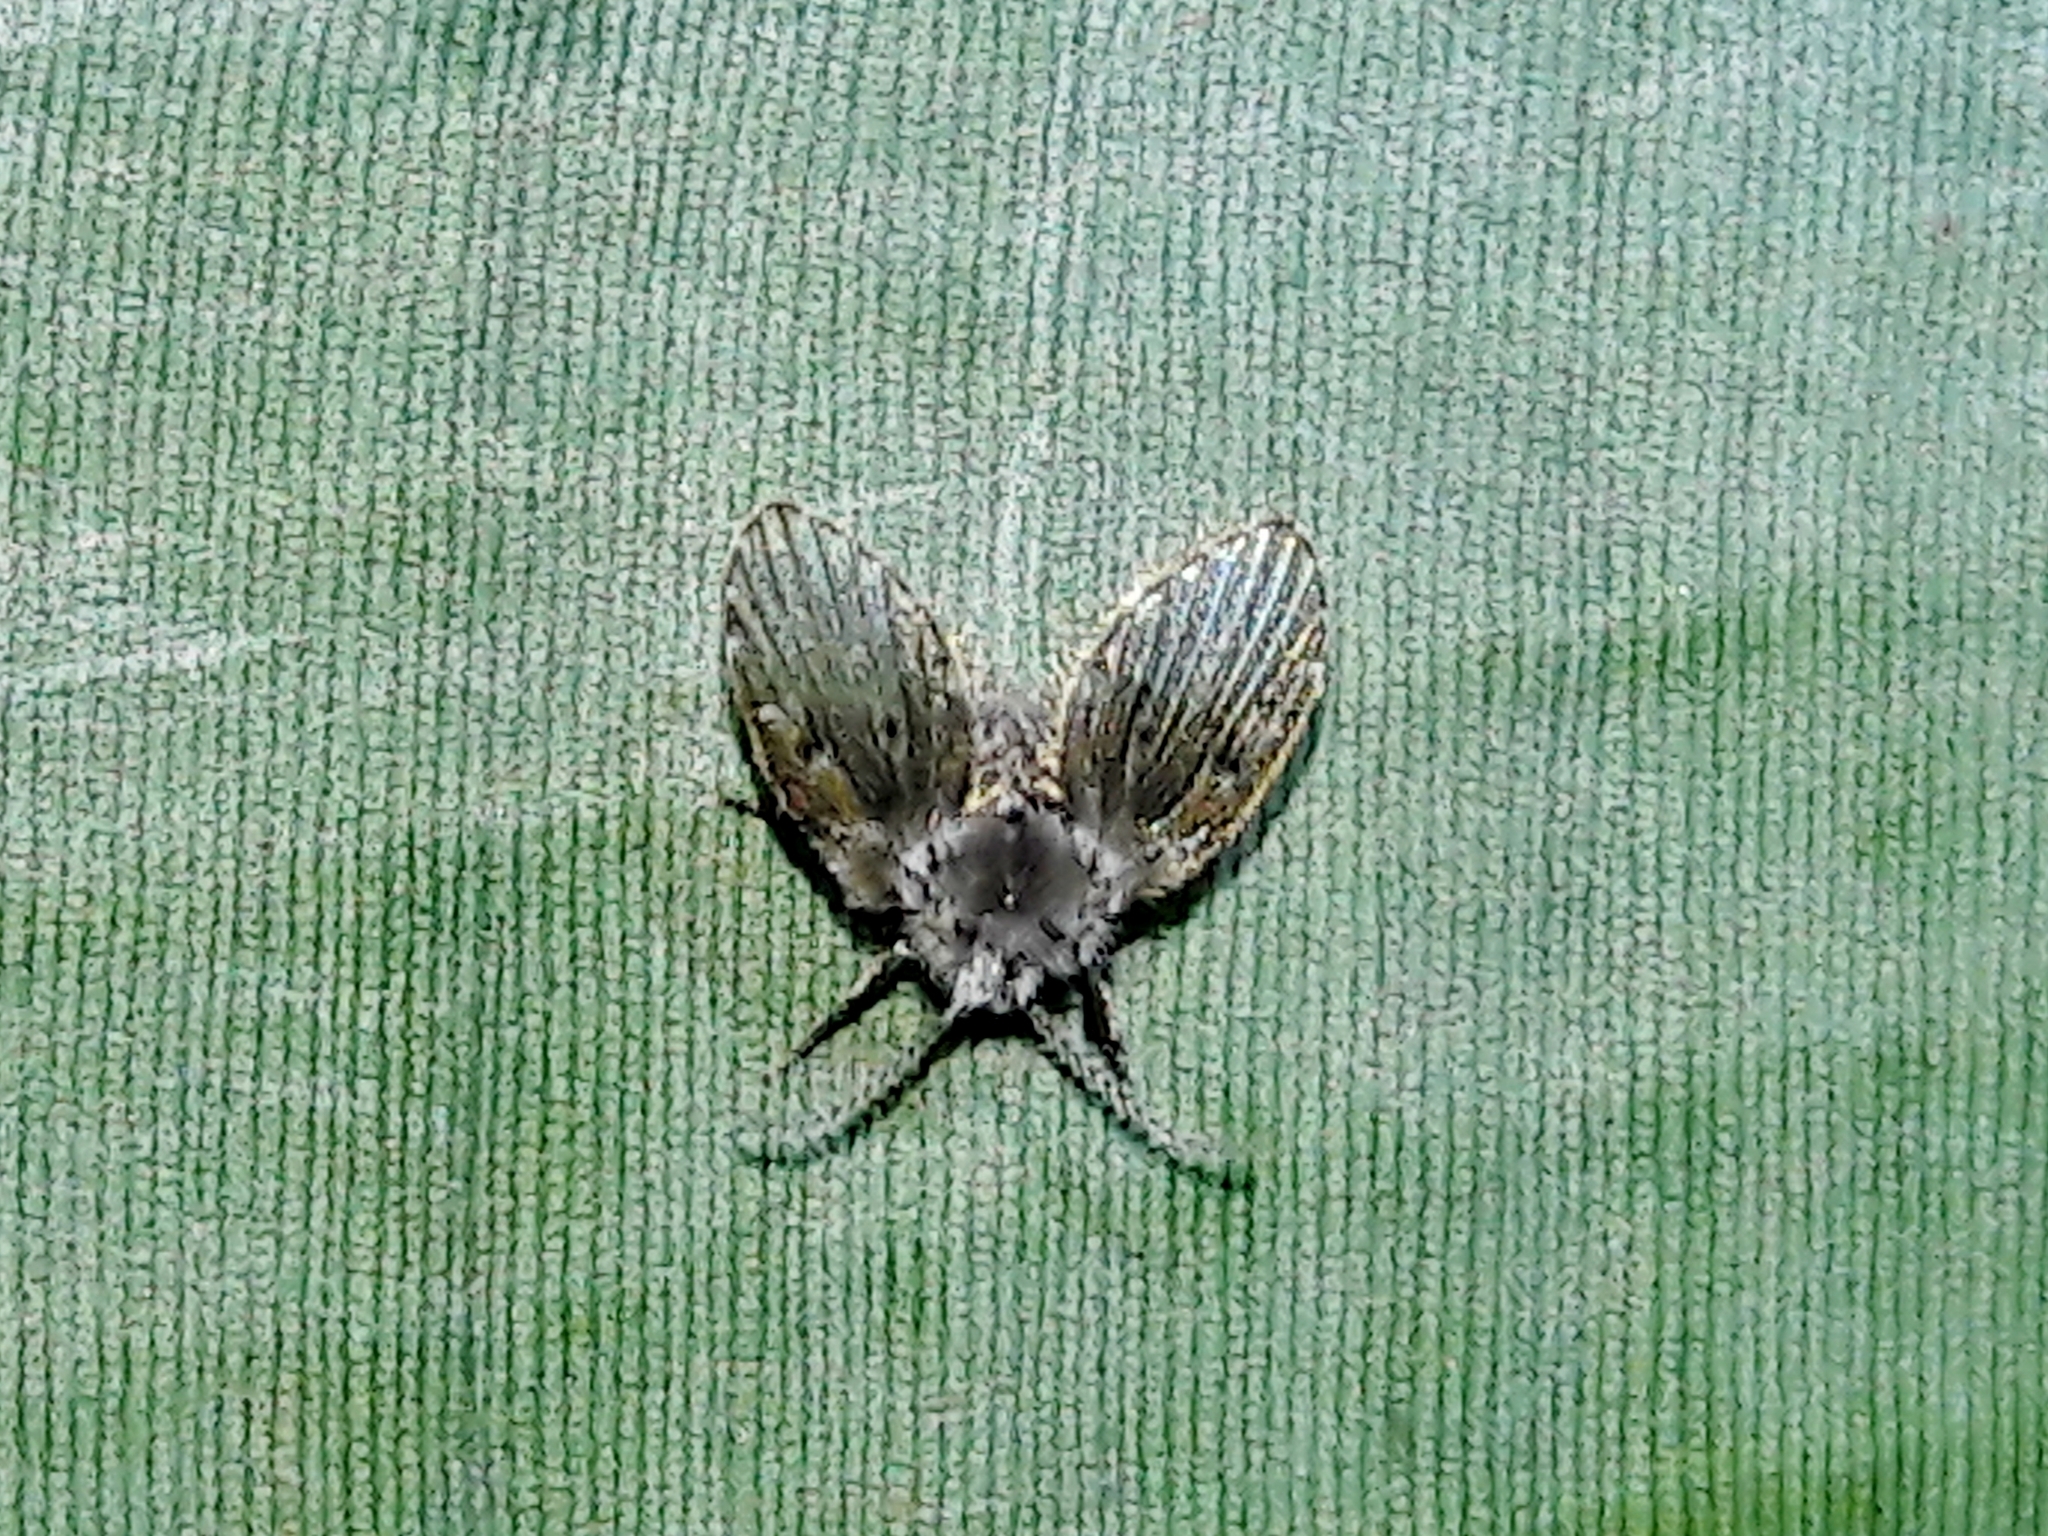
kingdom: Animalia
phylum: Arthropoda
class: Insecta
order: Diptera
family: Psychodidae
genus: Clogmia
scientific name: Clogmia albipunctatus
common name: White-spotted moth fly
